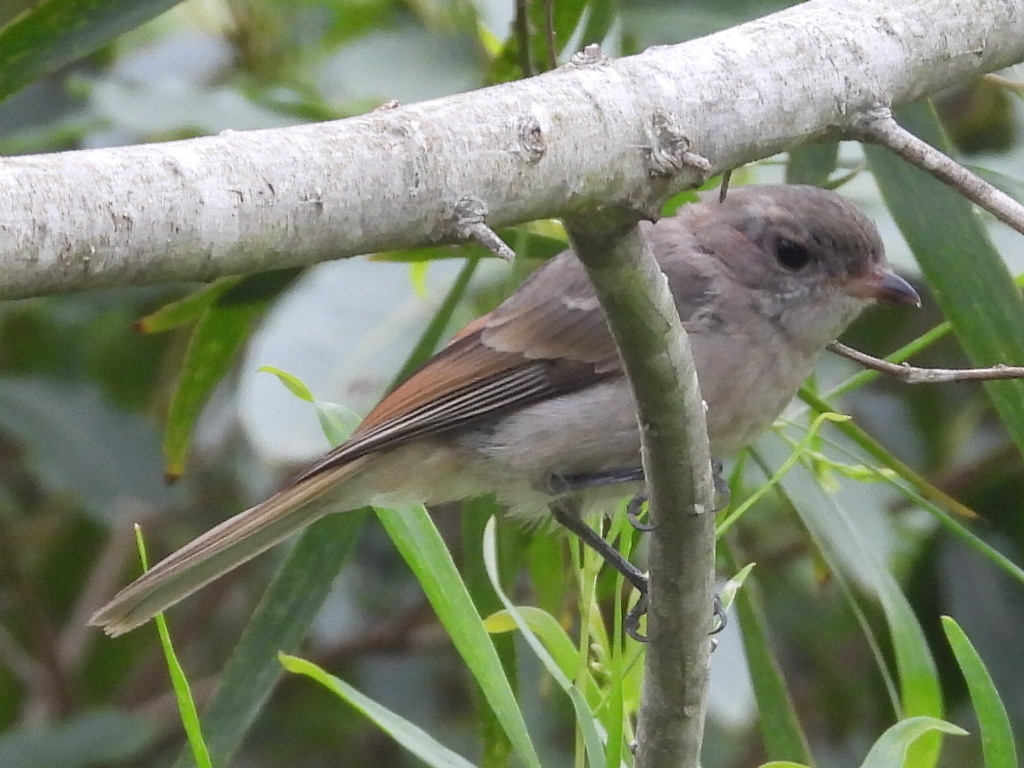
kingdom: Animalia
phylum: Chordata
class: Aves
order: Passeriformes
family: Pachycephalidae
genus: Pachycephala
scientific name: Pachycephala pectoralis
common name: Australian golden whistler
